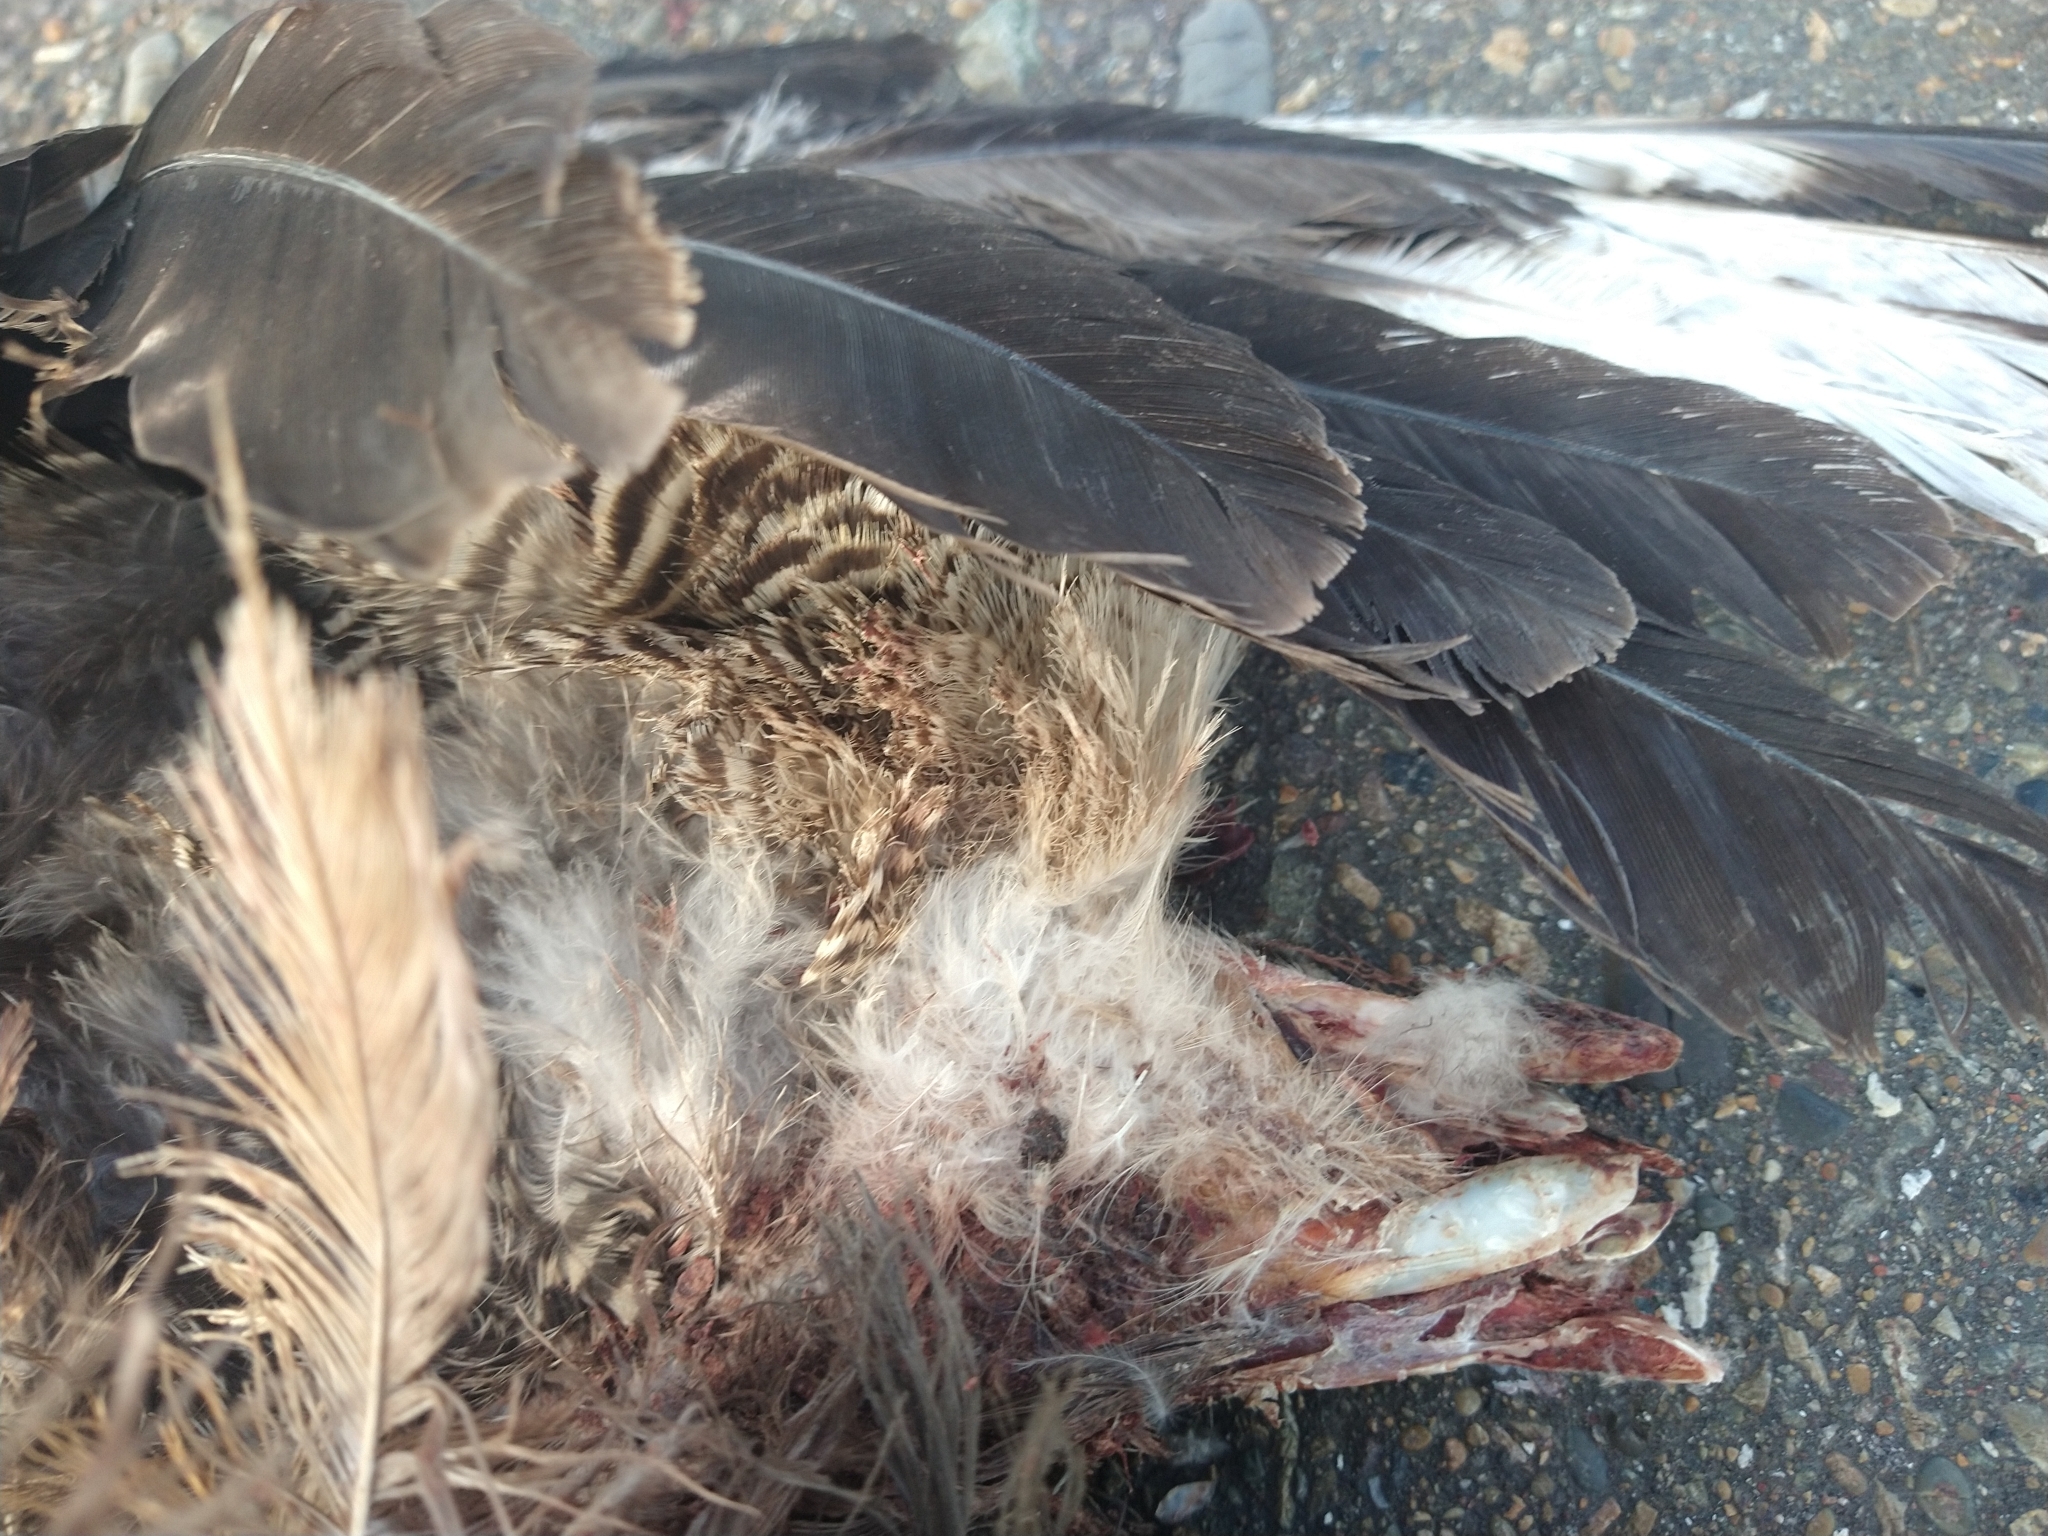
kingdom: Animalia
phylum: Chordata
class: Aves
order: Falconiformes
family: Falconidae
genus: Caracara
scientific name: Caracara plancus
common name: Southern caracara
